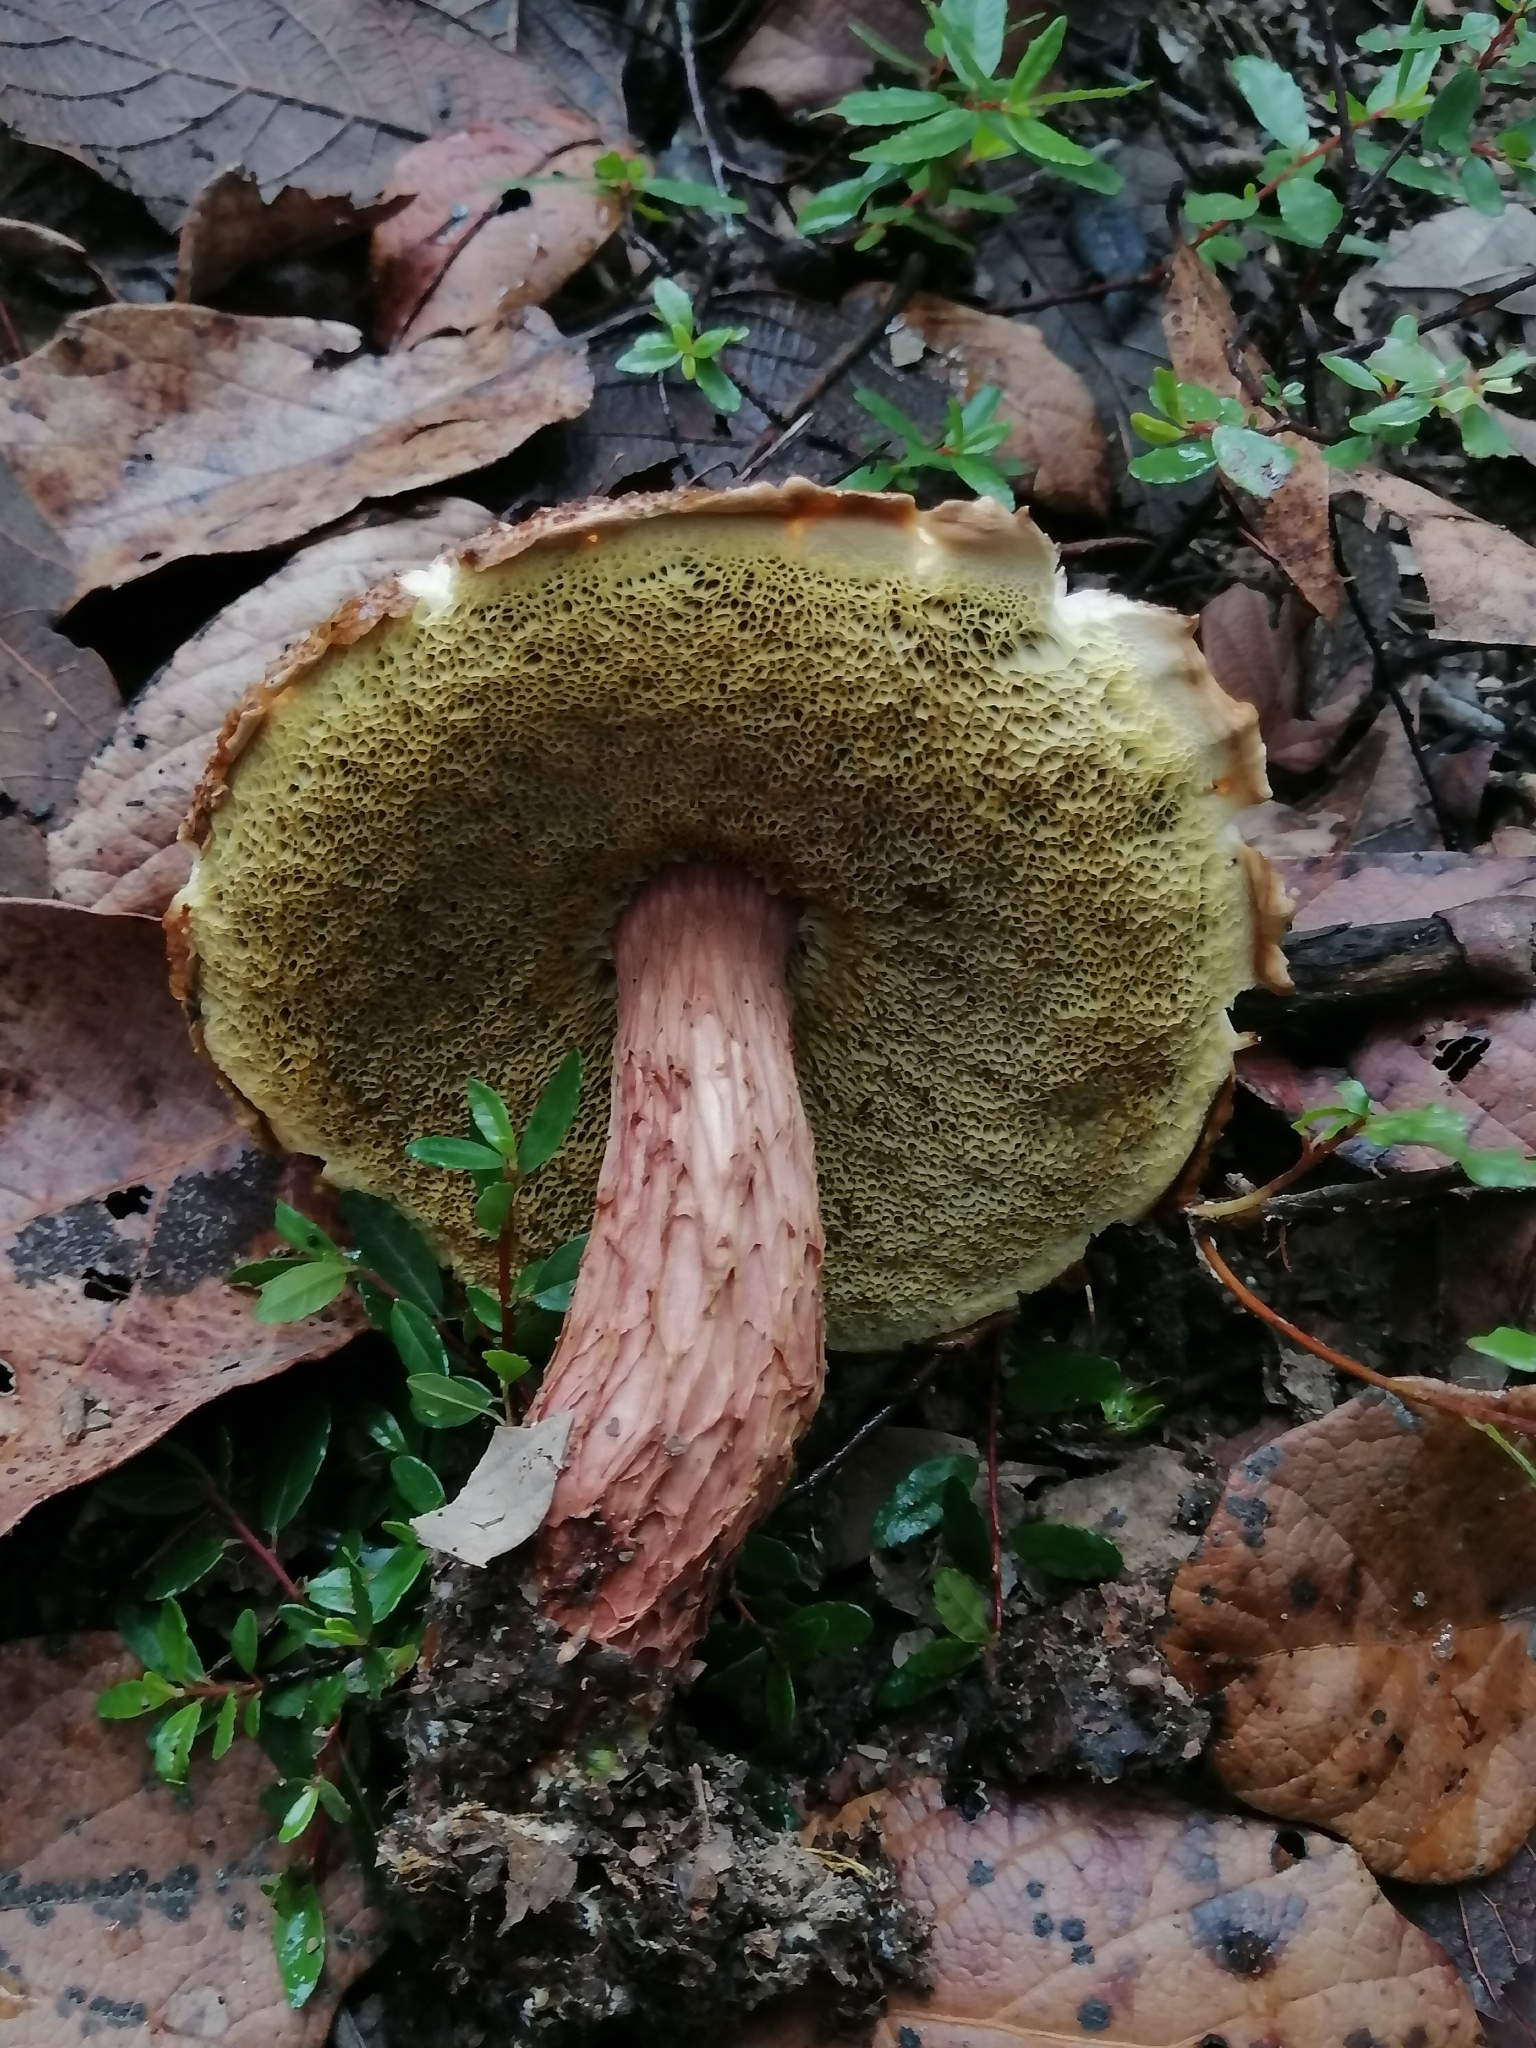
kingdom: Fungi
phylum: Basidiomycota
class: Agaricomycetes
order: Boletales
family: Boletaceae
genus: Aureoboletus
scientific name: Aureoboletus russellii
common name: Russell's bolete
